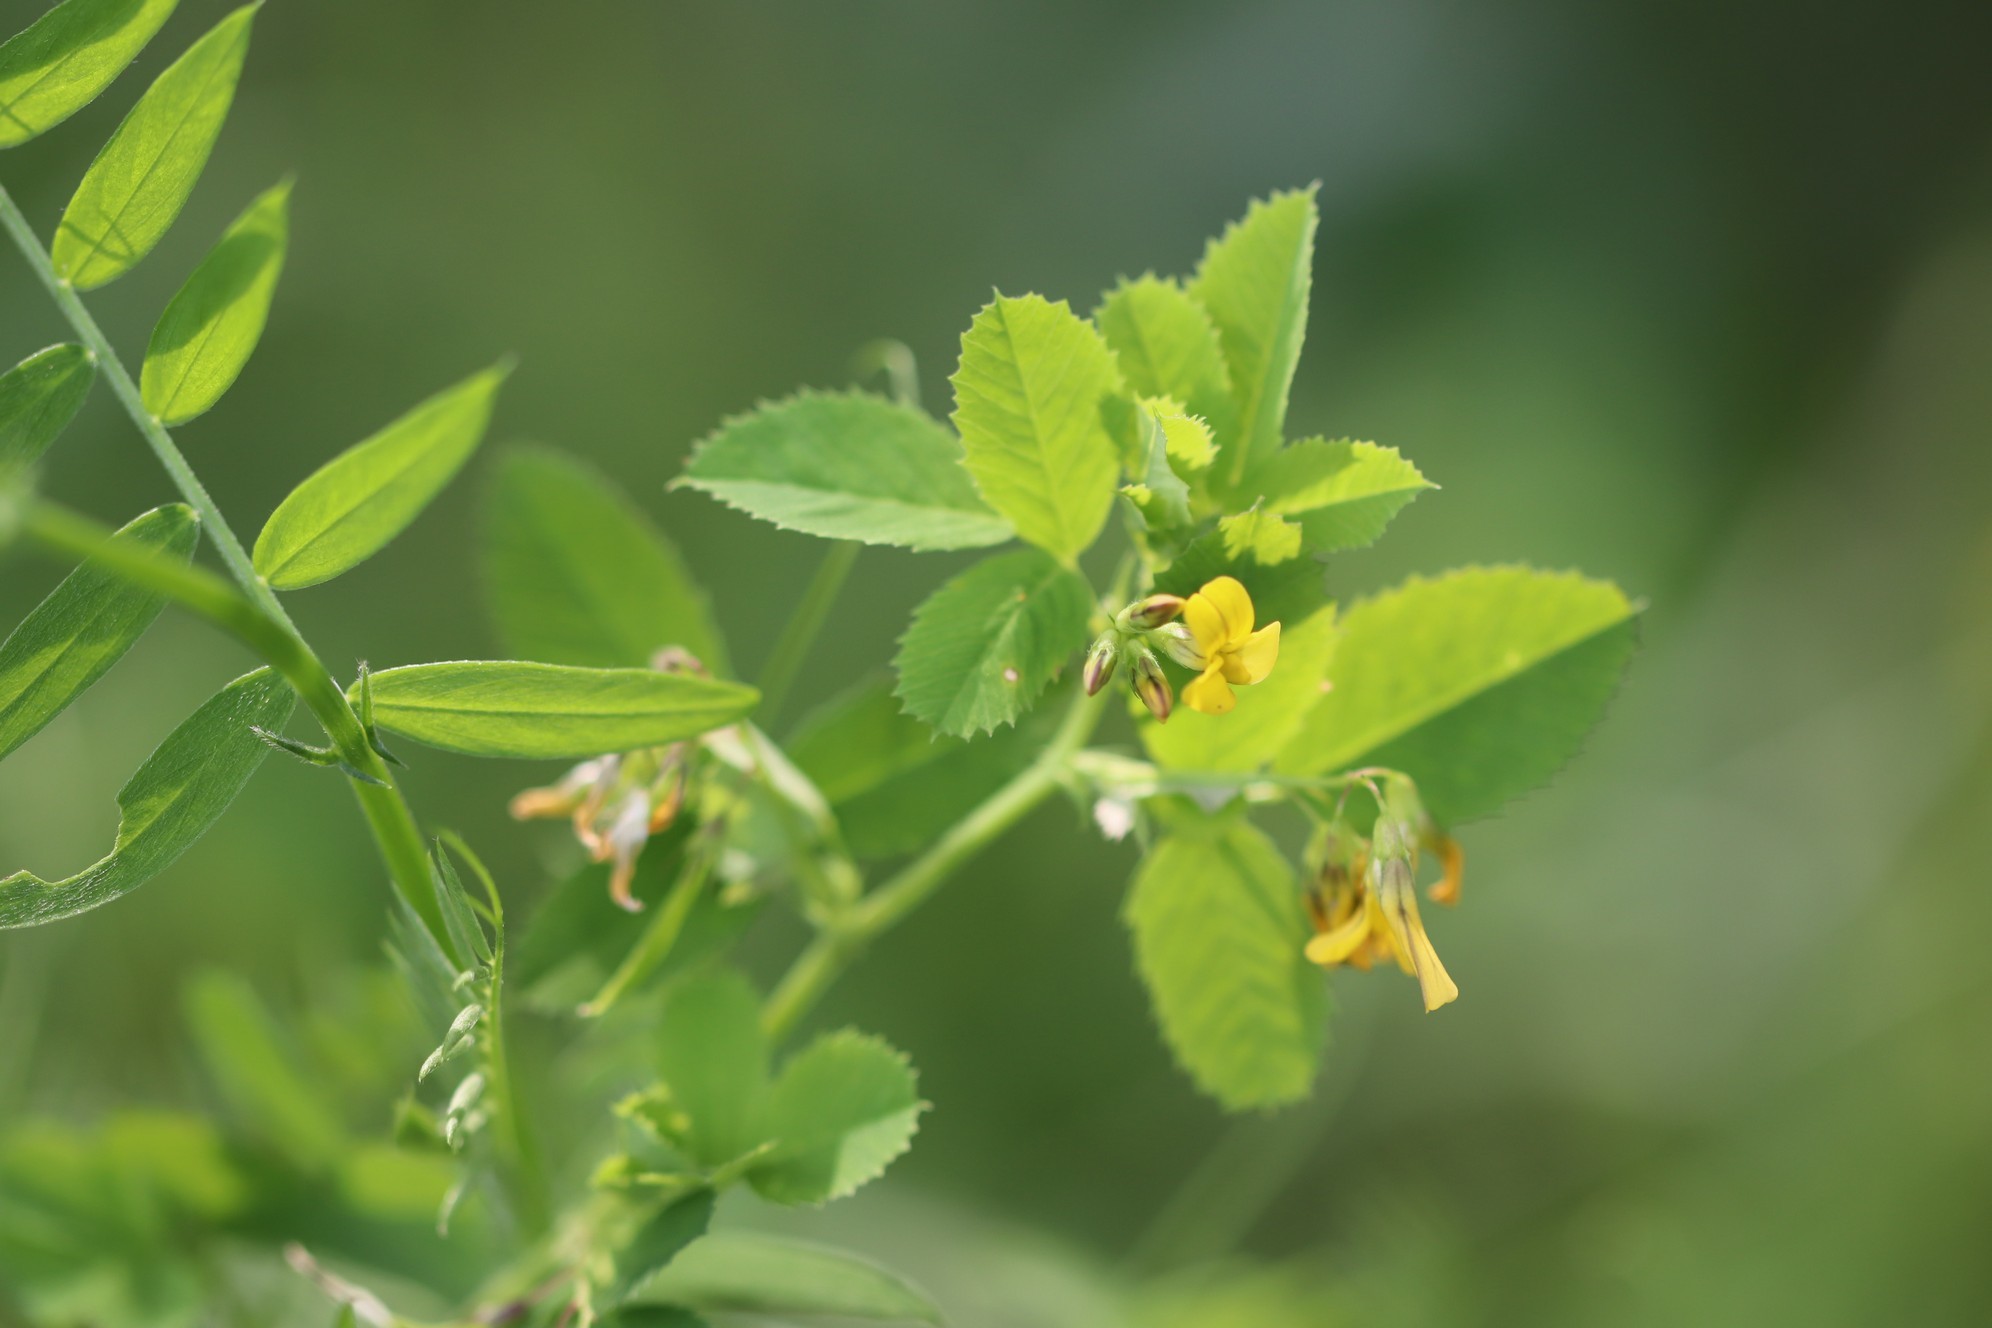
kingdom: Plantae
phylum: Tracheophyta
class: Magnoliopsida
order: Fabales
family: Fabaceae
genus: Medicago
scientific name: Medicago platycarpos
